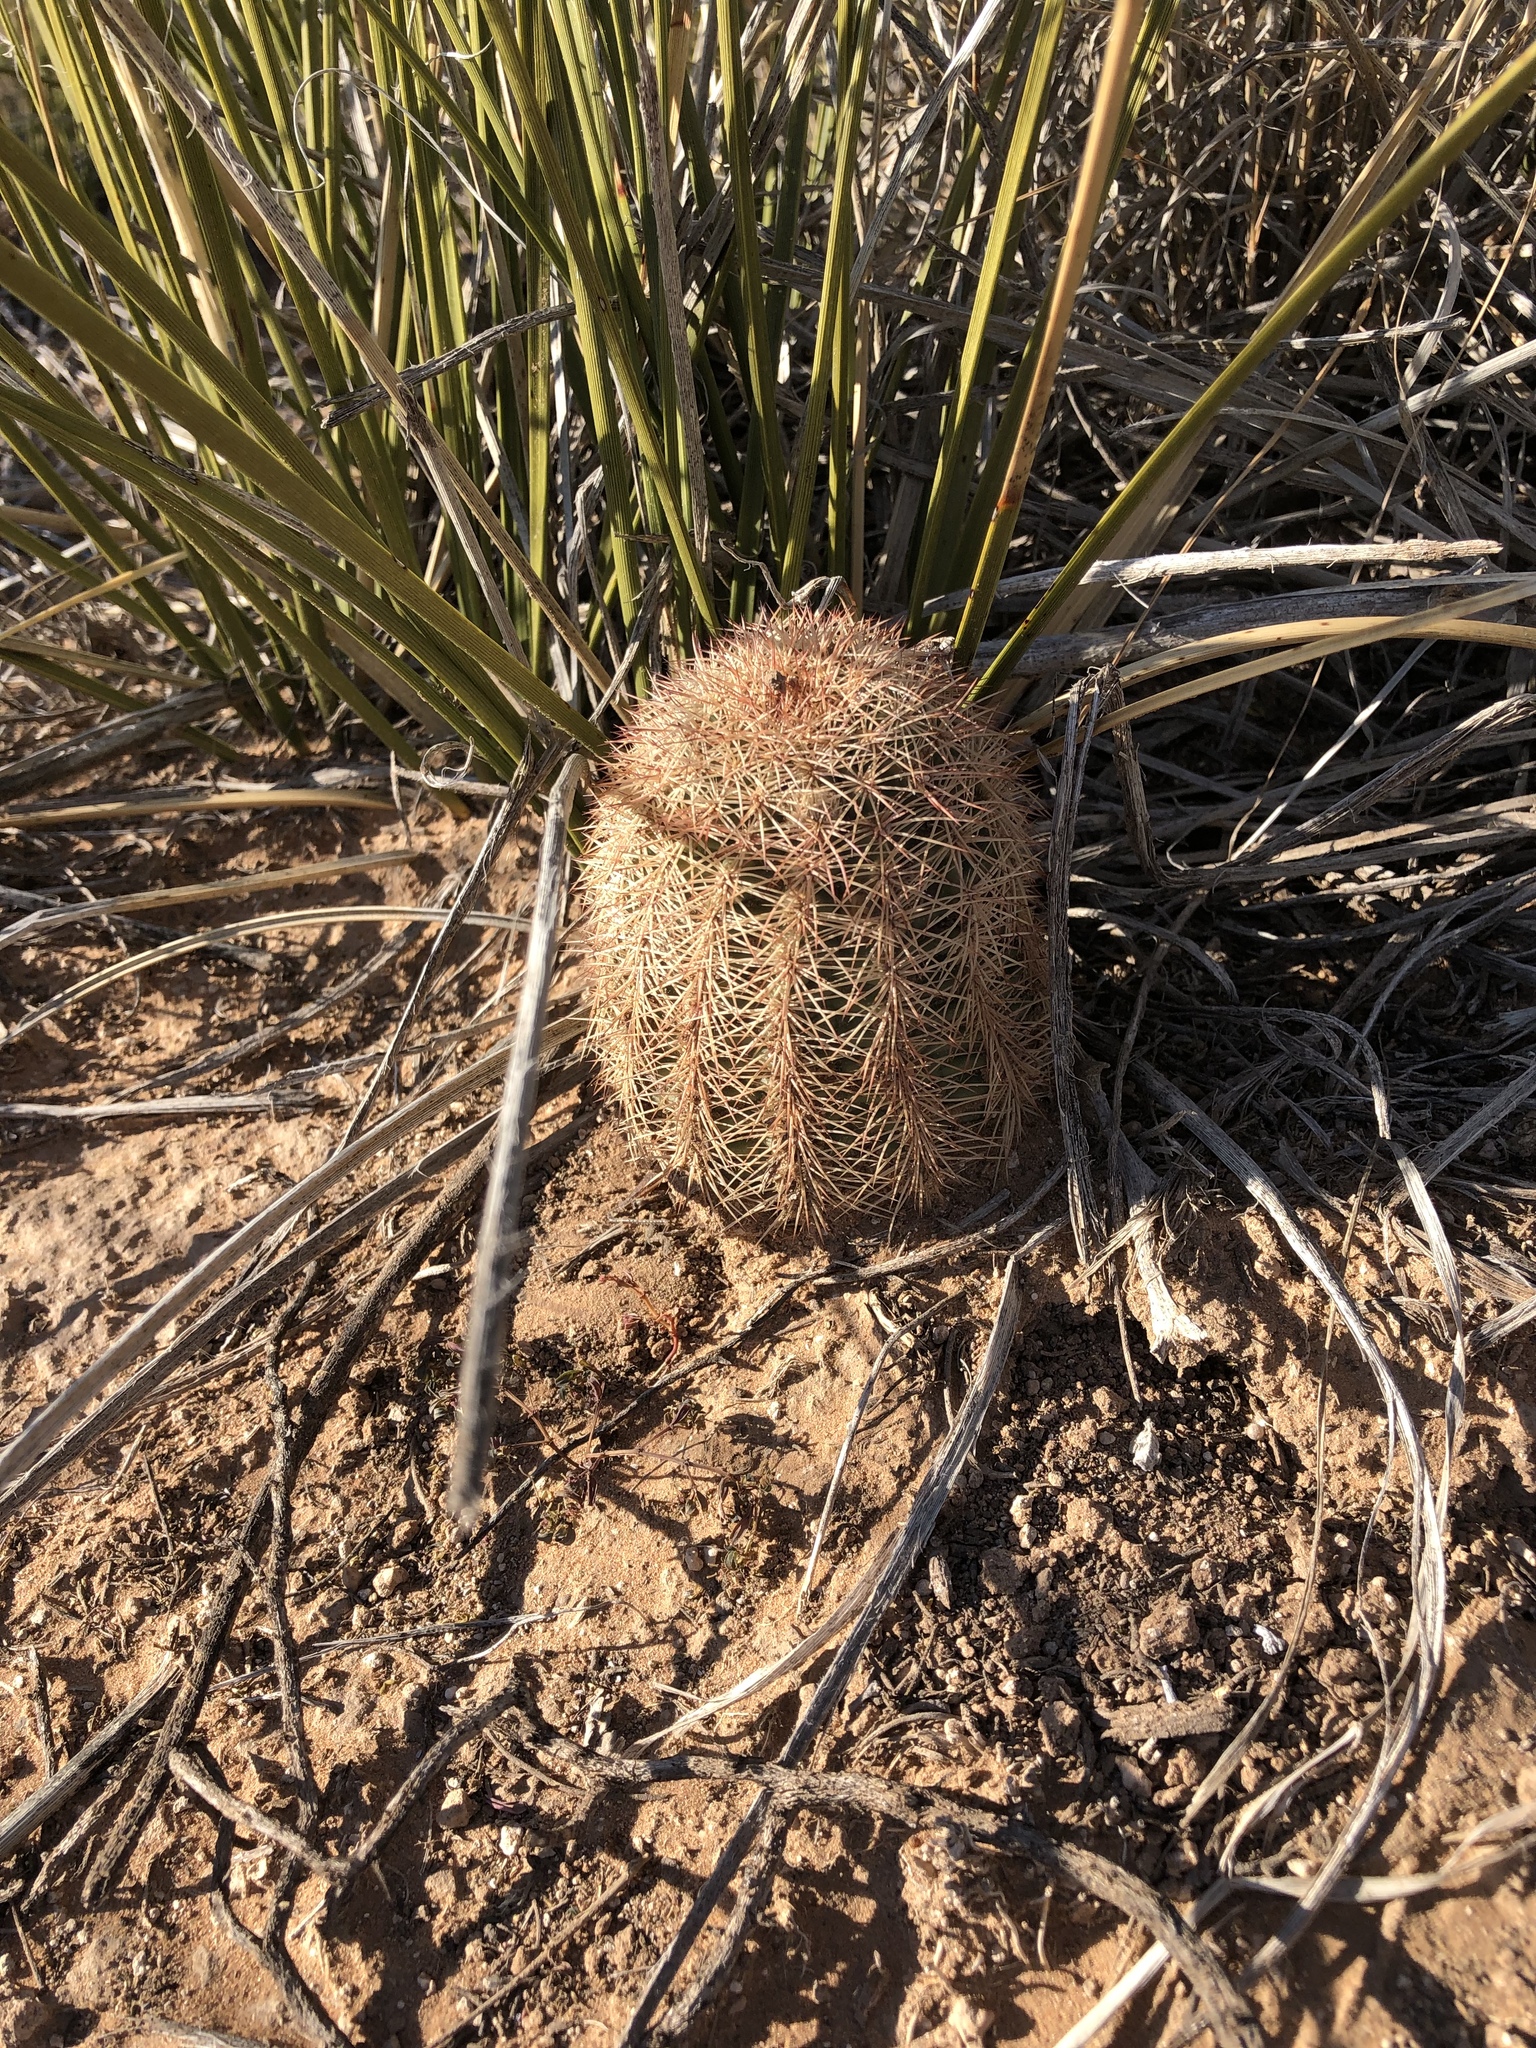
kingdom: Plantae
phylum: Tracheophyta
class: Magnoliopsida
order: Caryophyllales
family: Cactaceae
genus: Echinocereus
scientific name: Echinocereus dasyacanthus
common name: Spiny hedgehog cactus
